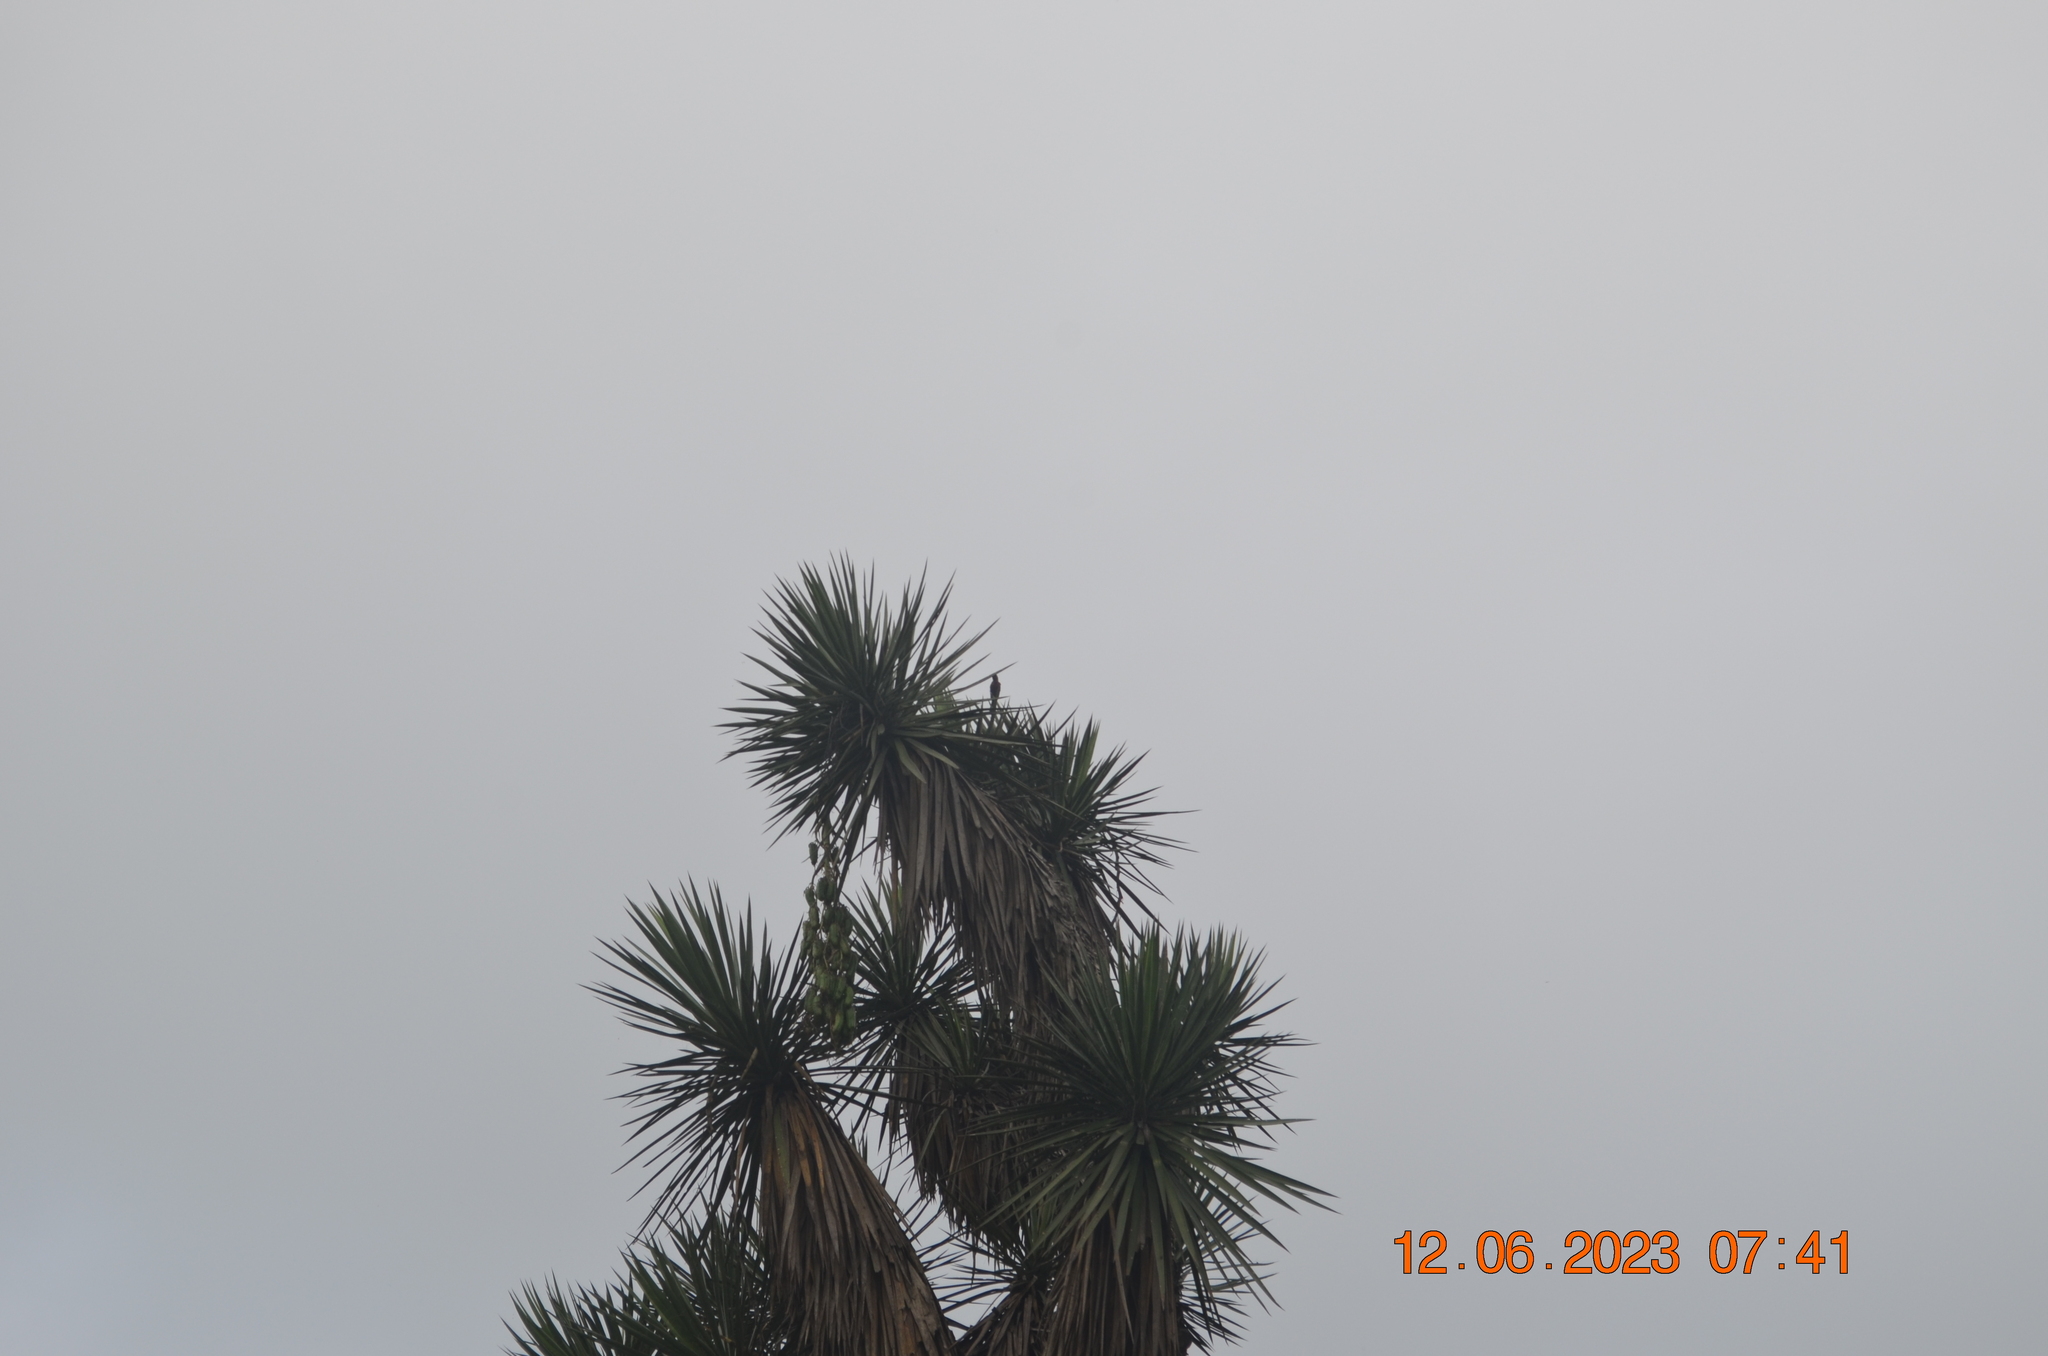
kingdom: Animalia
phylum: Chordata
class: Aves
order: Passeriformes
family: Cardinalidae
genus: Cardinalis
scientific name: Cardinalis cardinalis
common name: Northern cardinal
